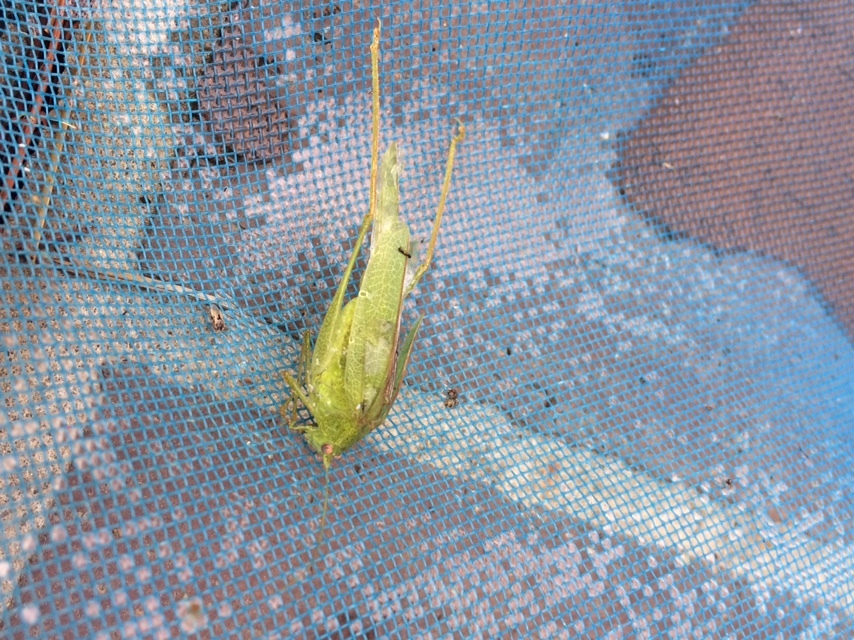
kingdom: Animalia
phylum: Arthropoda
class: Insecta
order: Orthoptera
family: Tettigoniidae
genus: Phaneroptera
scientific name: Phaneroptera nana
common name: Southern sickle bush-cricket
